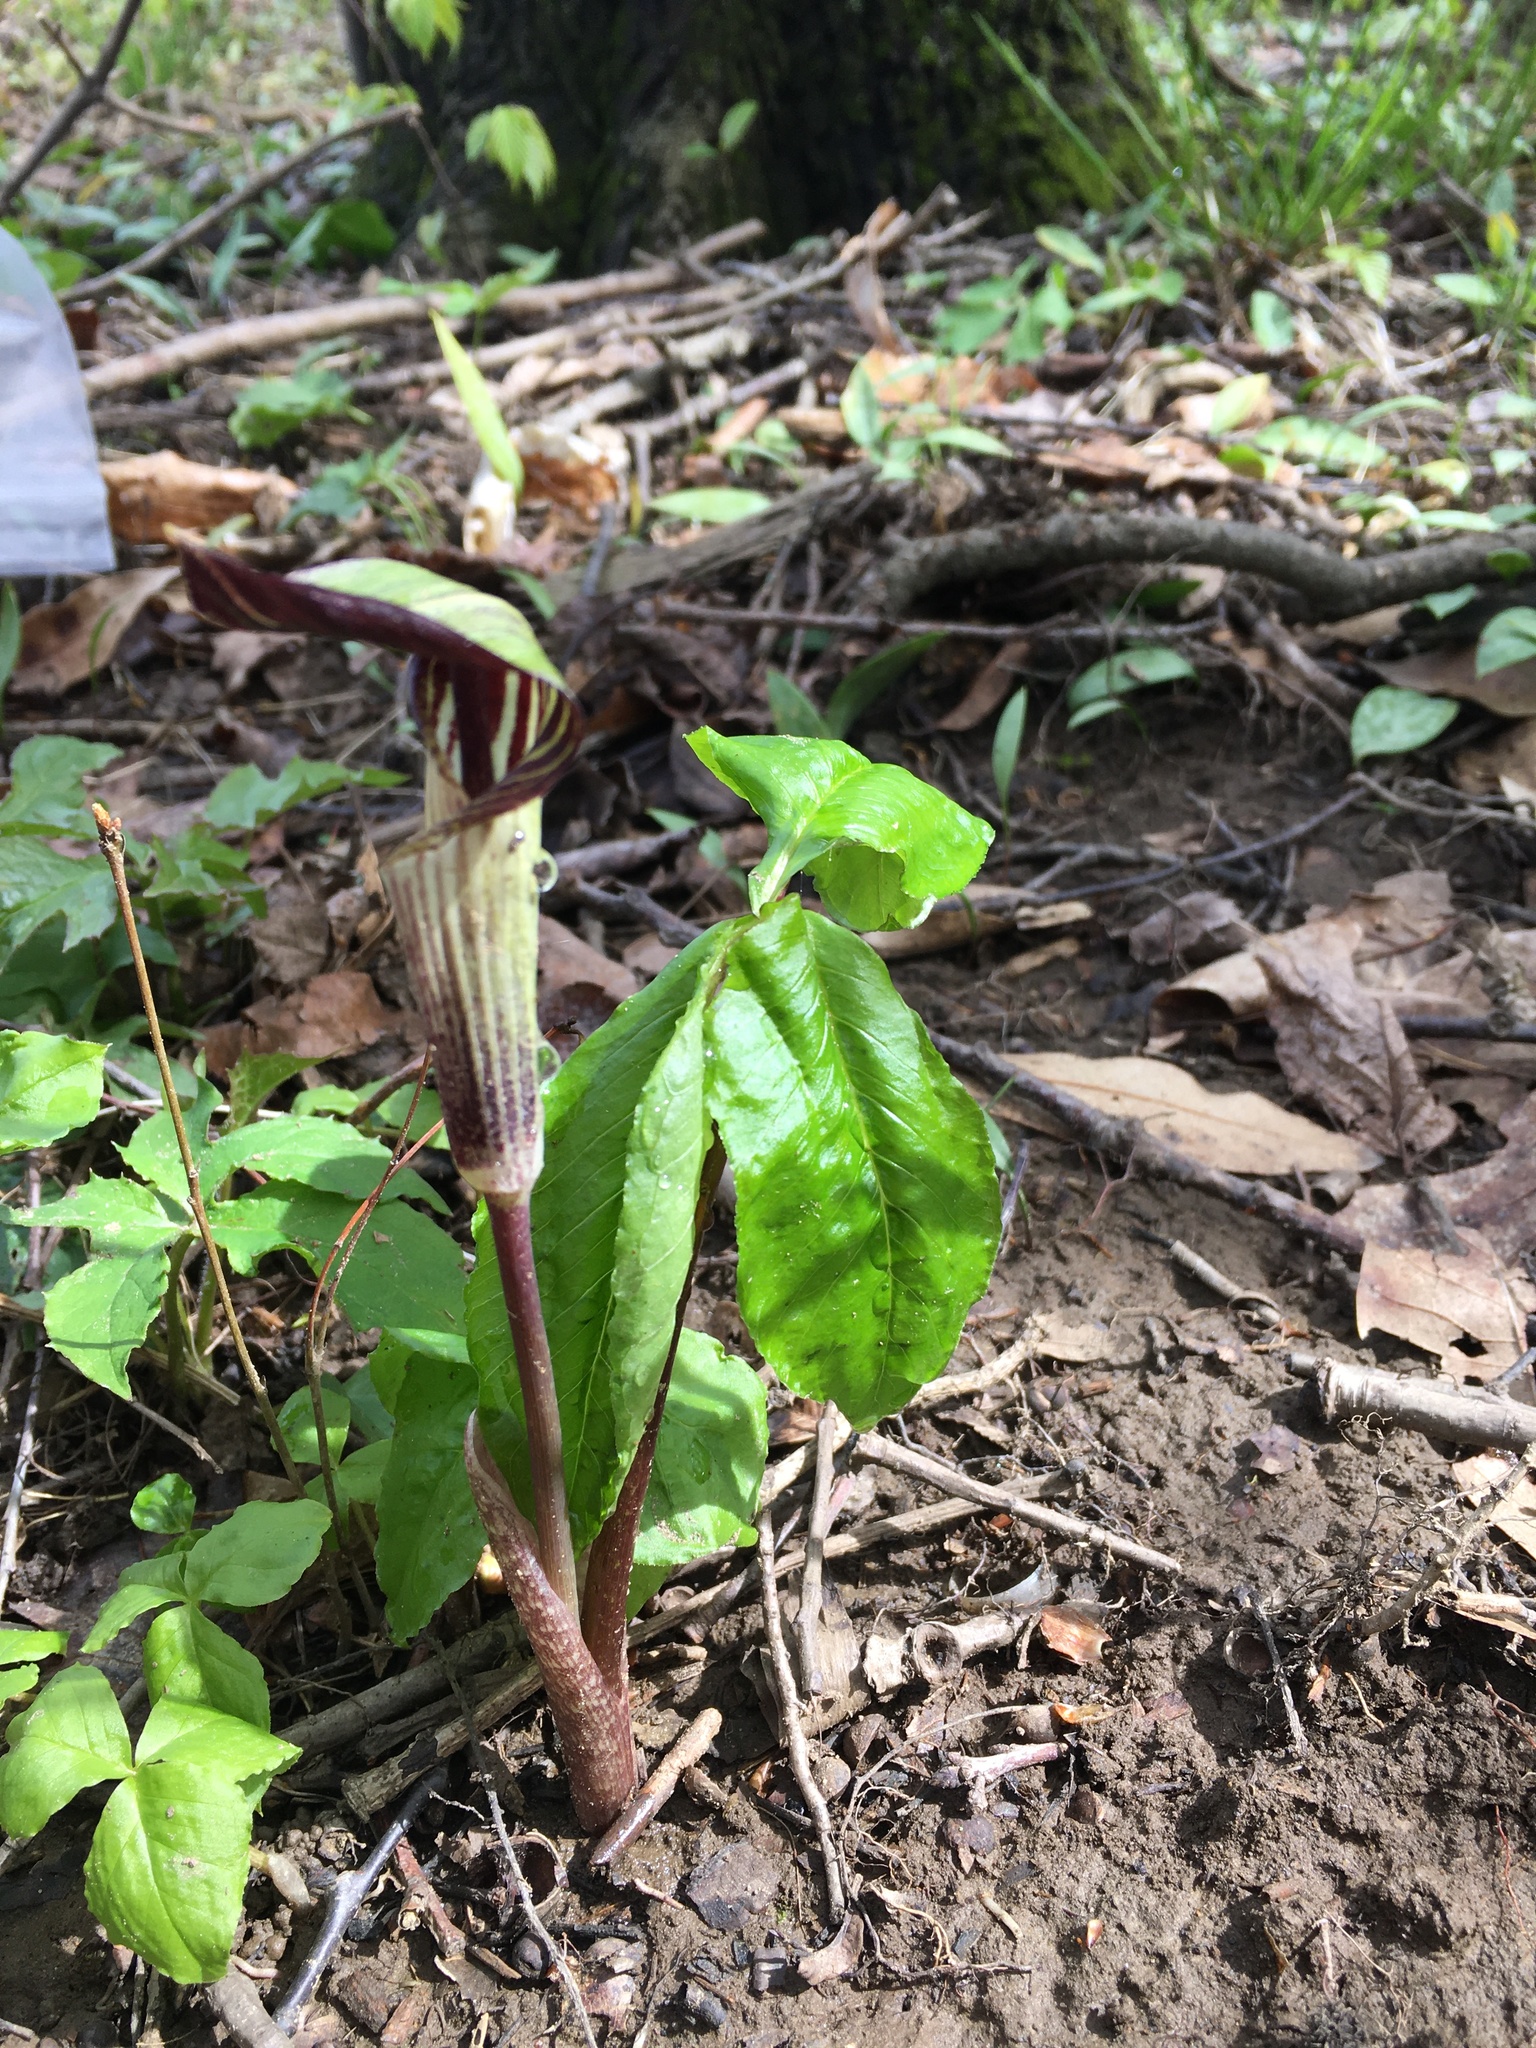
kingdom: Plantae
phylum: Tracheophyta
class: Liliopsida
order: Alismatales
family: Araceae
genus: Arisaema
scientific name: Arisaema triphyllum
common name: Jack-in-the-pulpit
